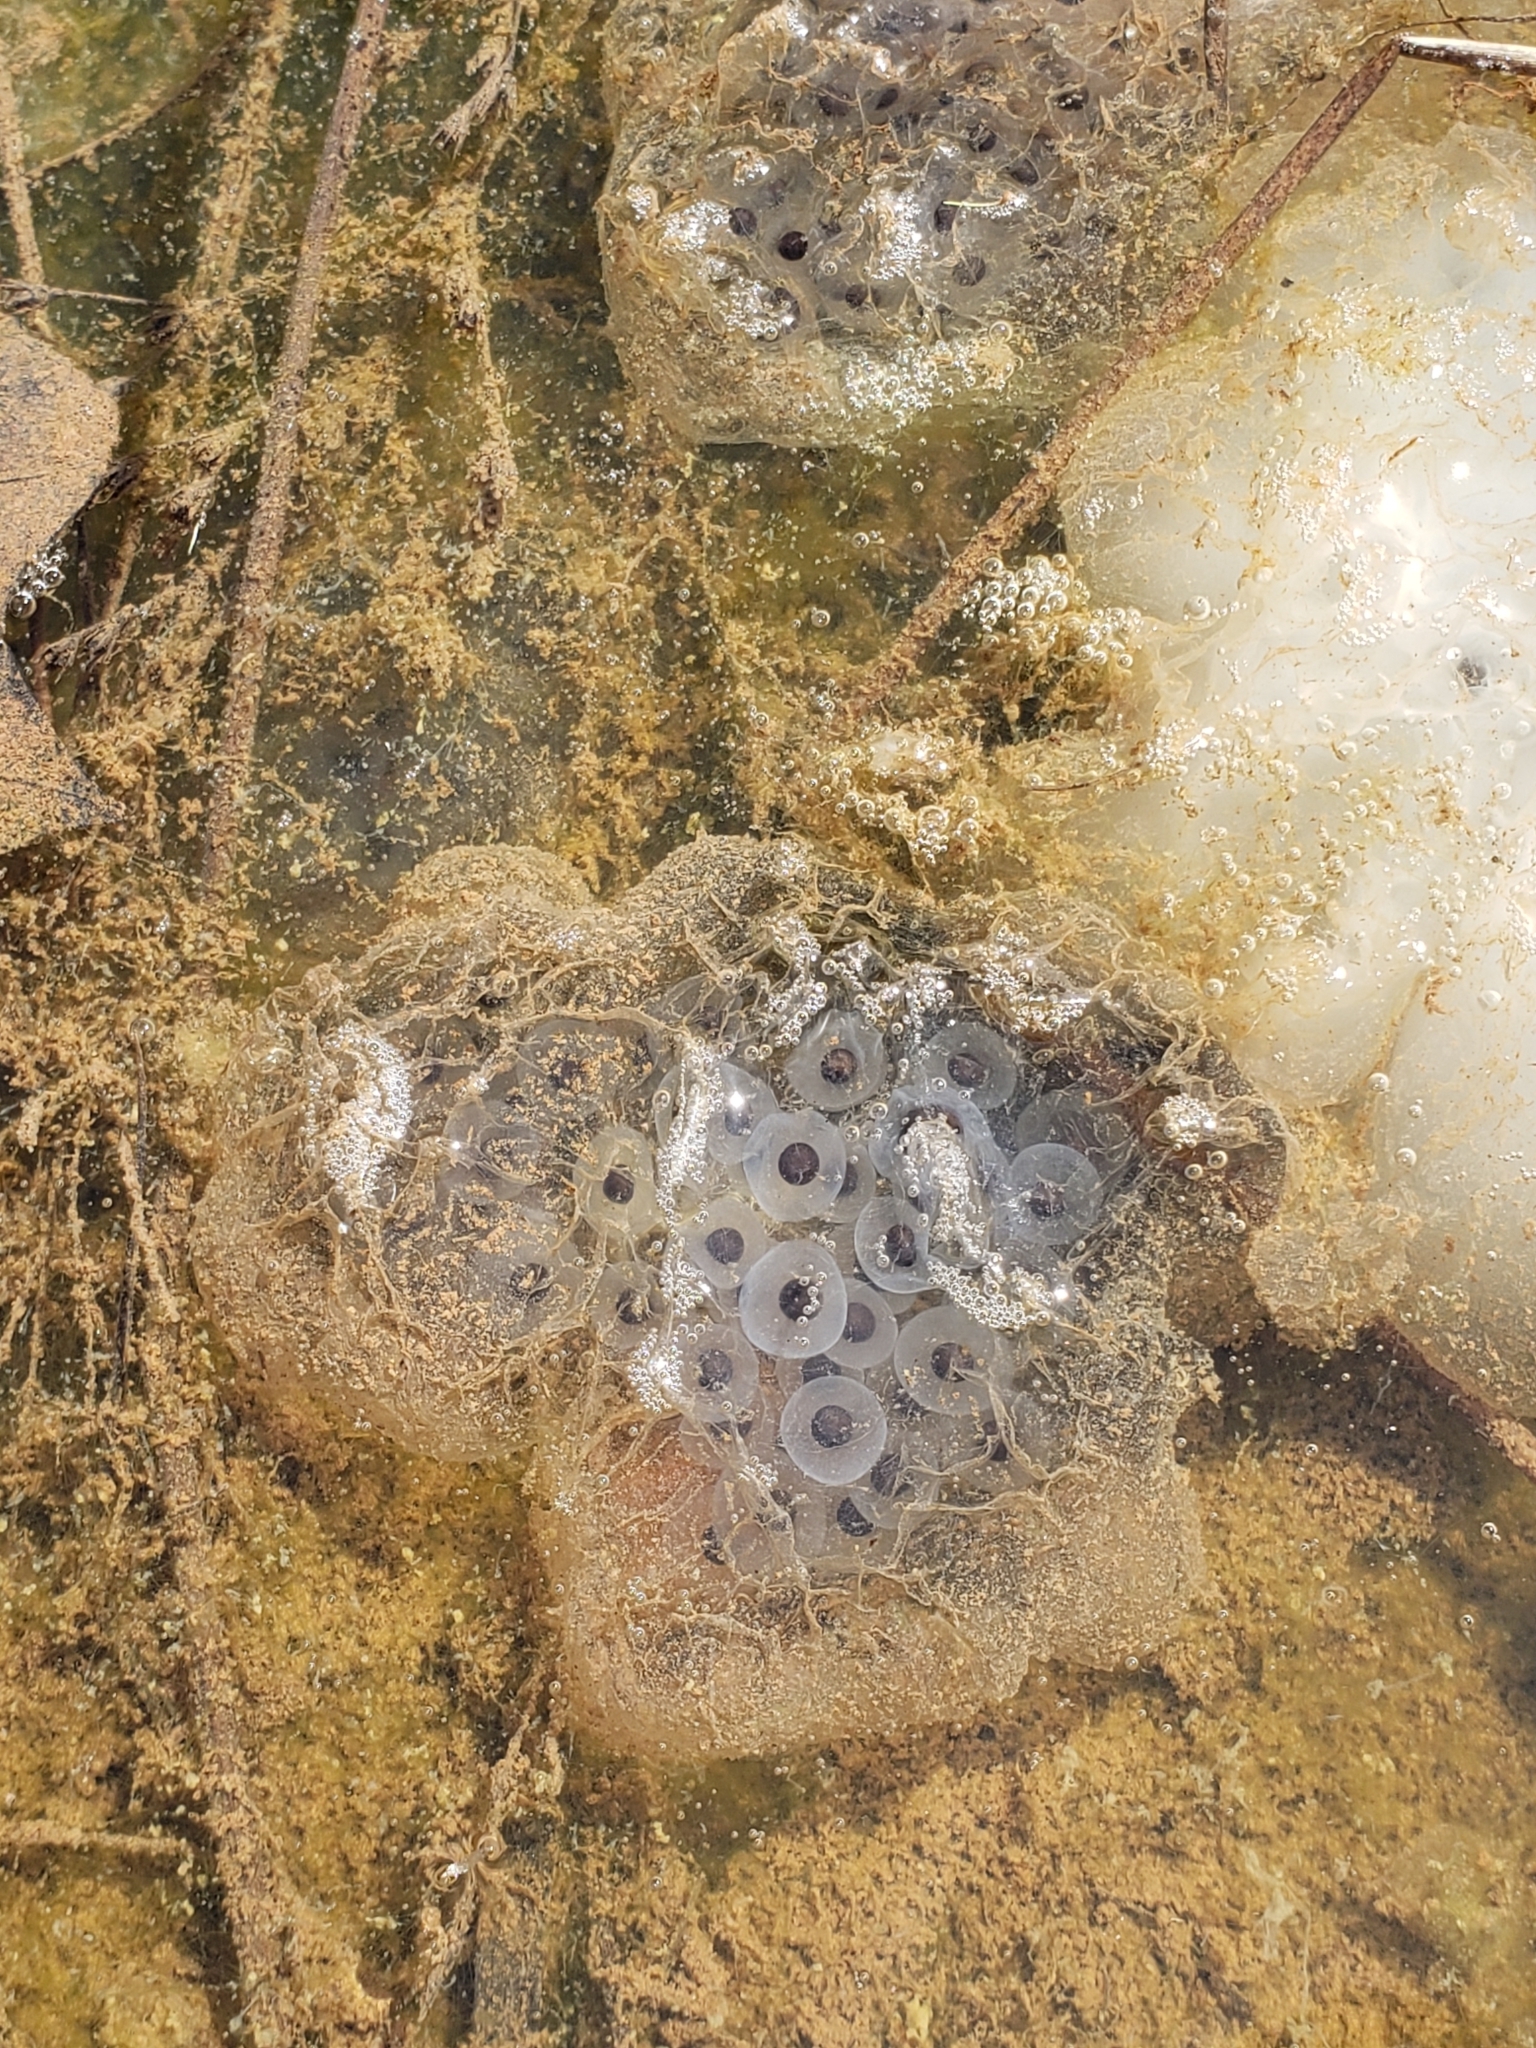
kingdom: Animalia
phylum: Chordata
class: Amphibia
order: Caudata
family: Ambystomatidae
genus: Ambystoma
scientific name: Ambystoma maculatum
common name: Spotted salamander
